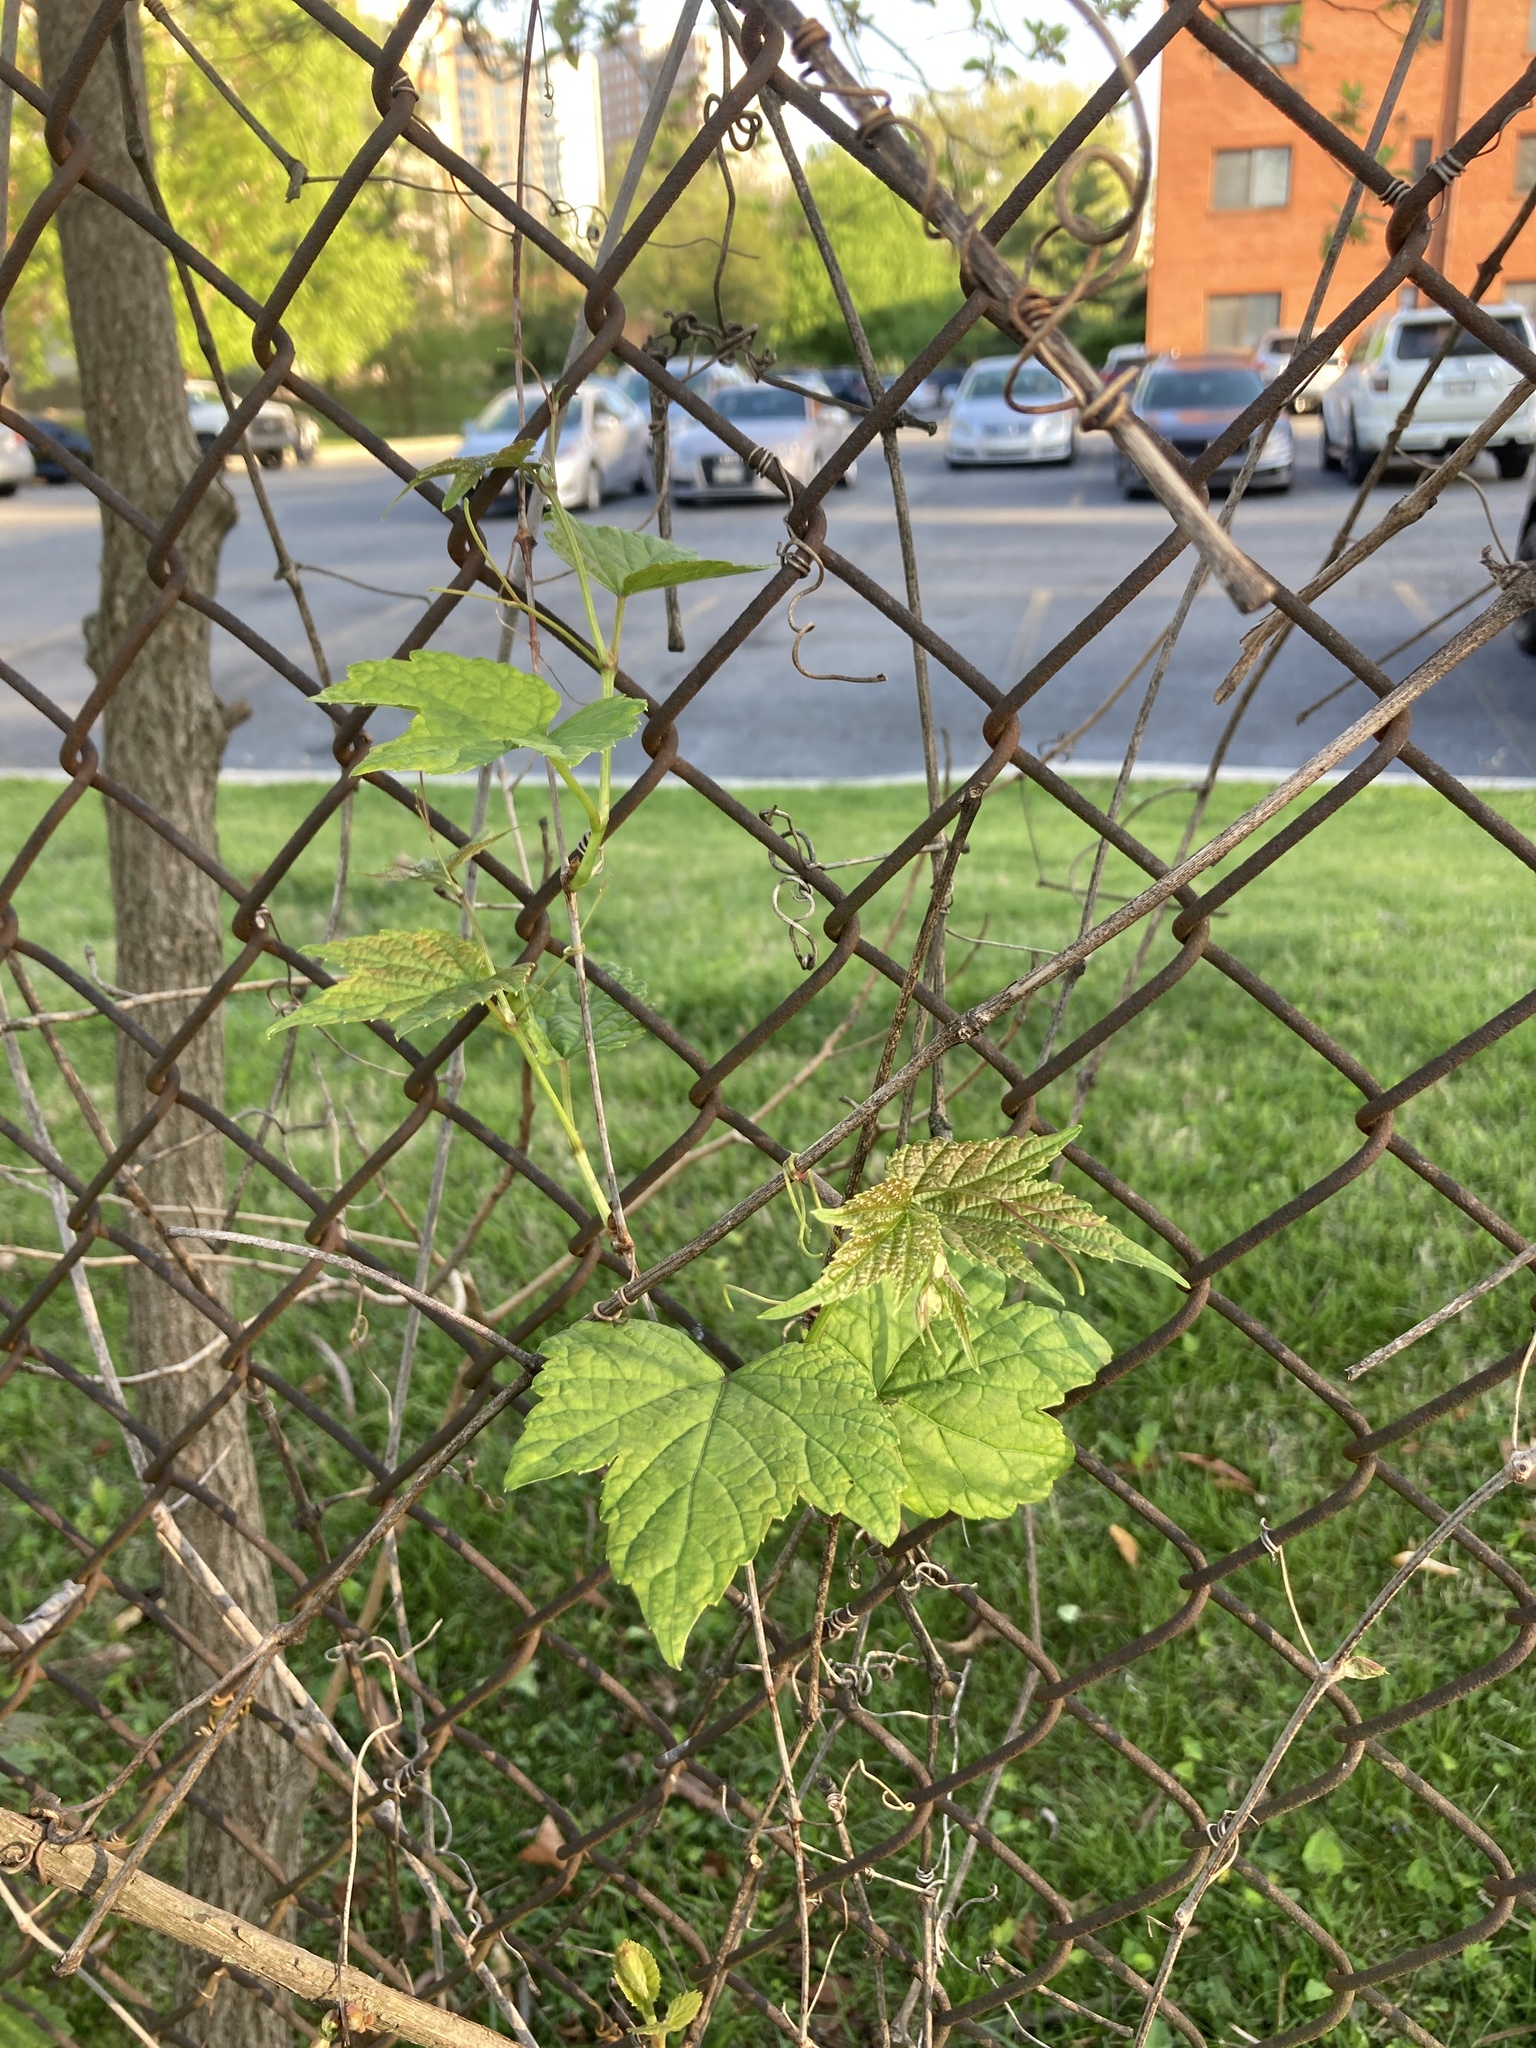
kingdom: Plantae
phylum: Tracheophyta
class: Magnoliopsida
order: Vitales
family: Vitaceae
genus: Ampelopsis
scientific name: Ampelopsis glandulosa
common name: Amur peppervine
